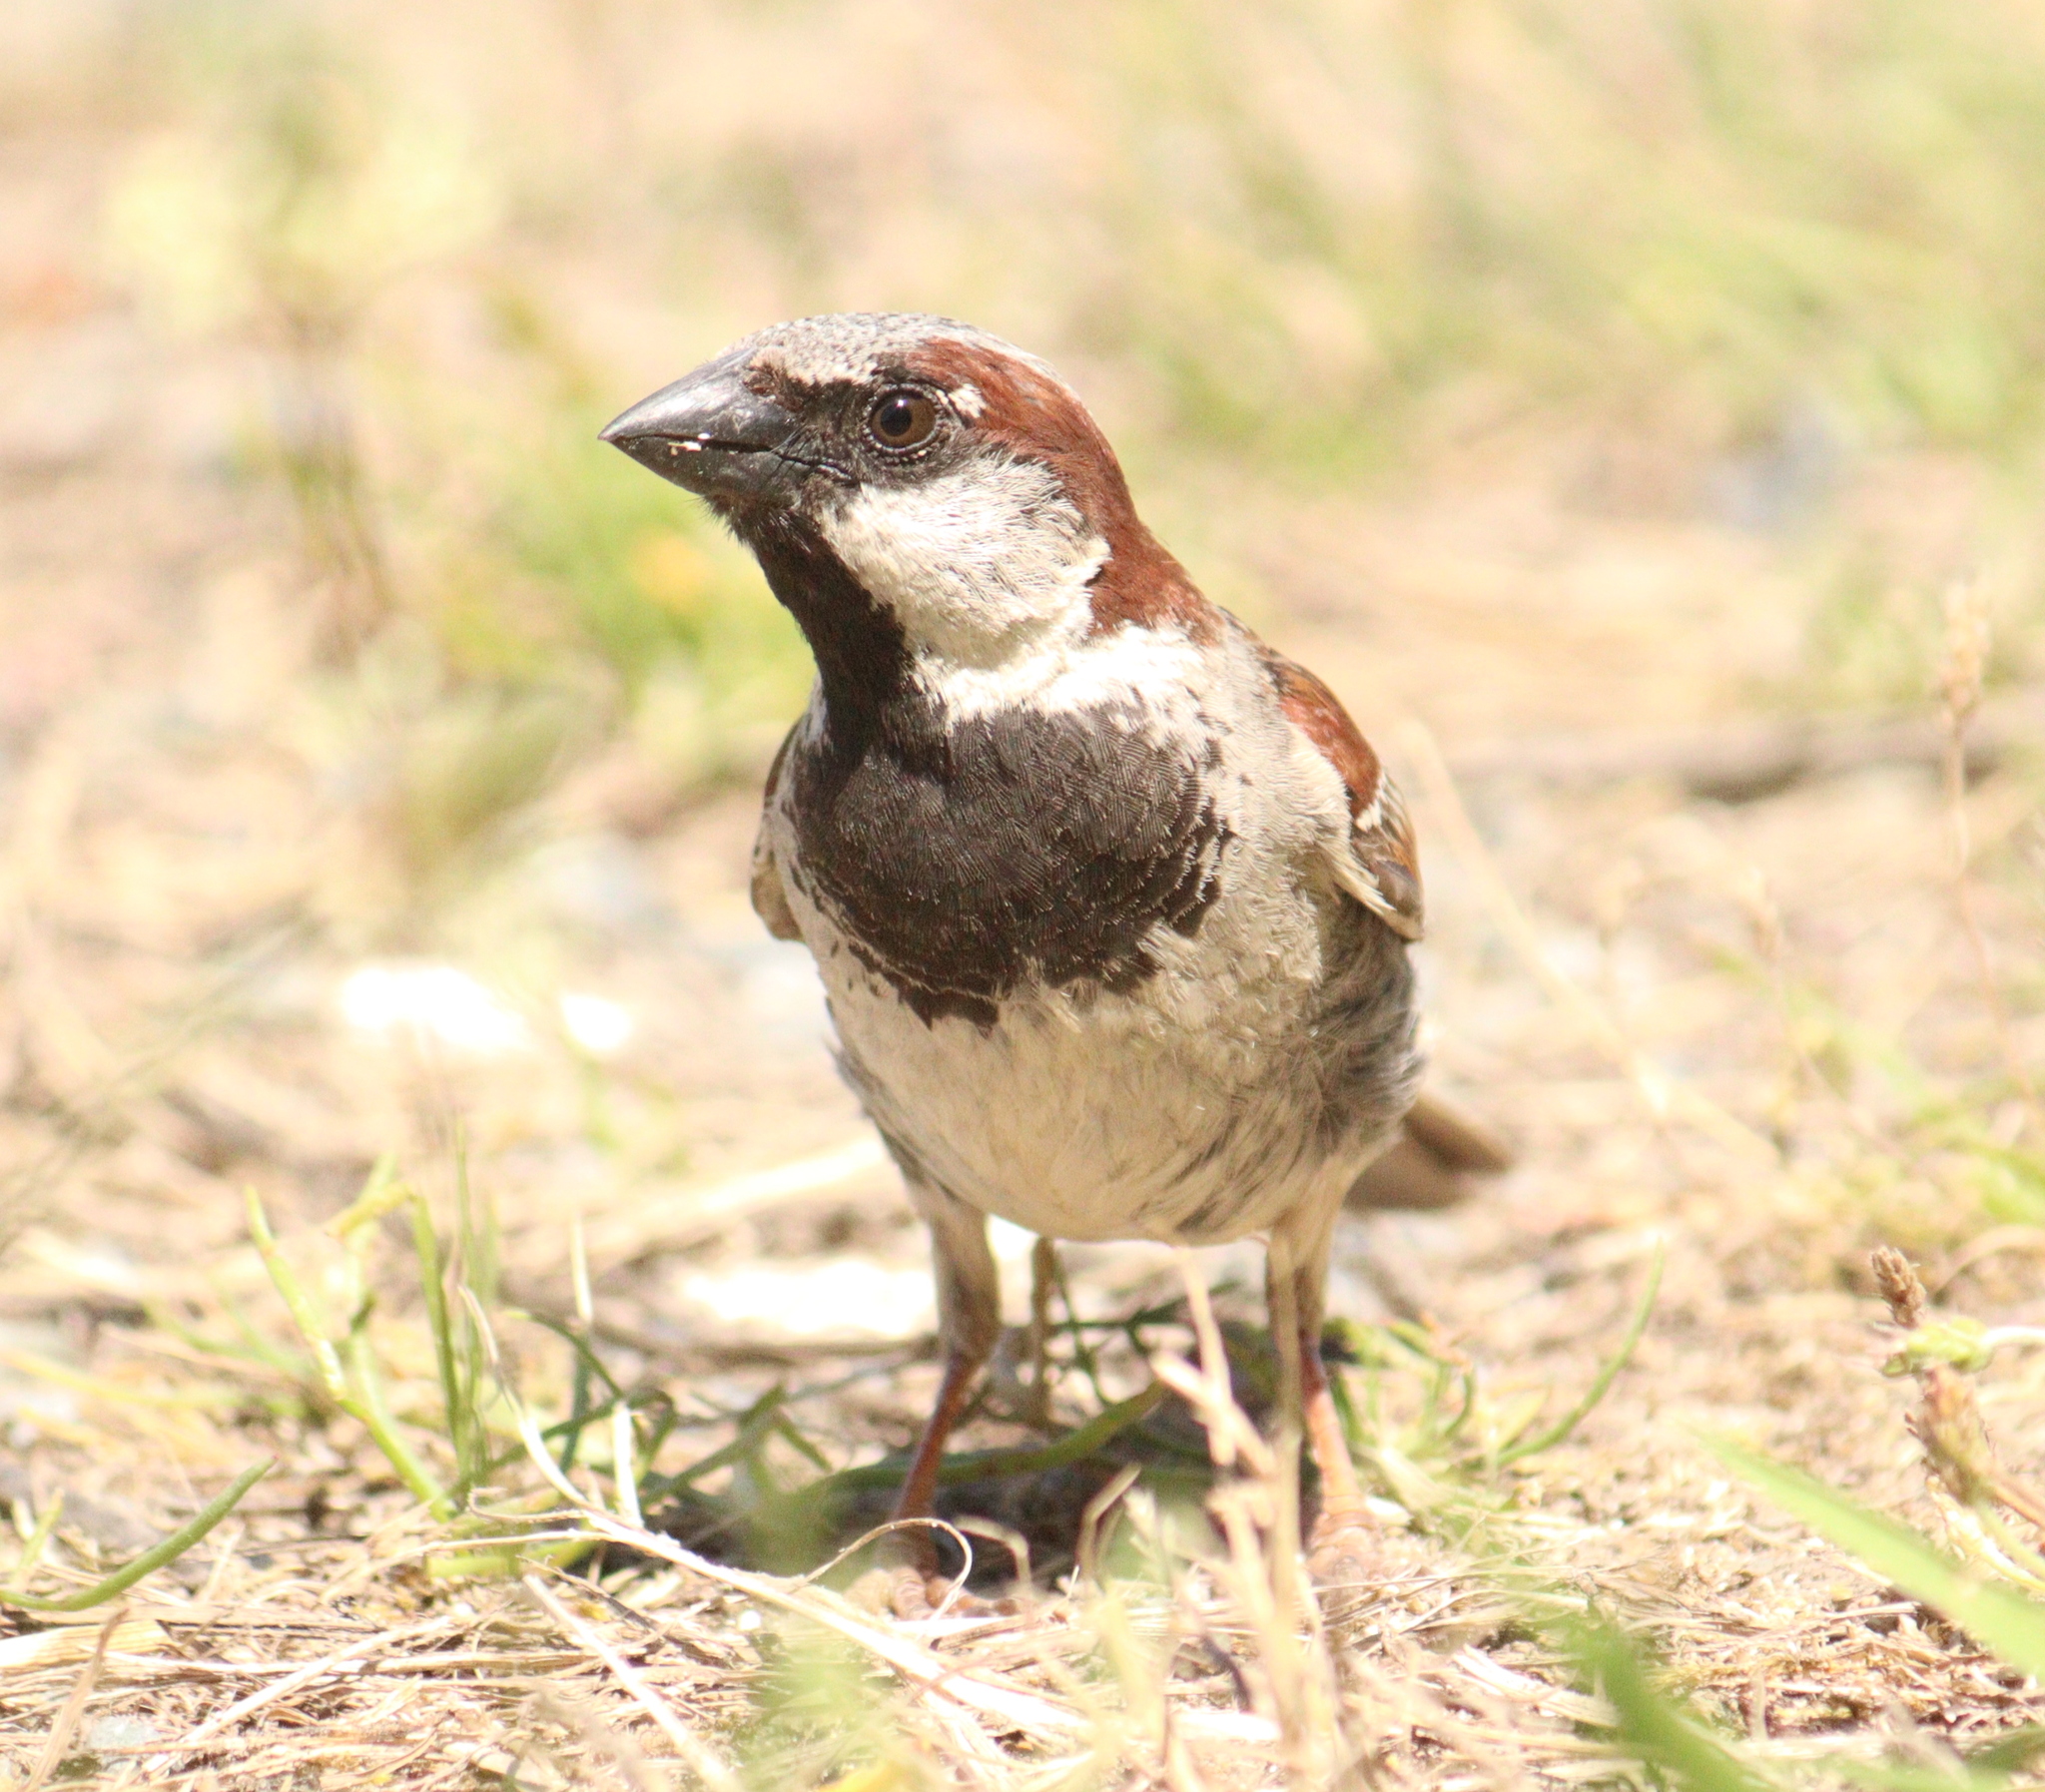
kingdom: Animalia
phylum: Chordata
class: Aves
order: Passeriformes
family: Passeridae
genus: Passer
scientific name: Passer domesticus
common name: House sparrow
